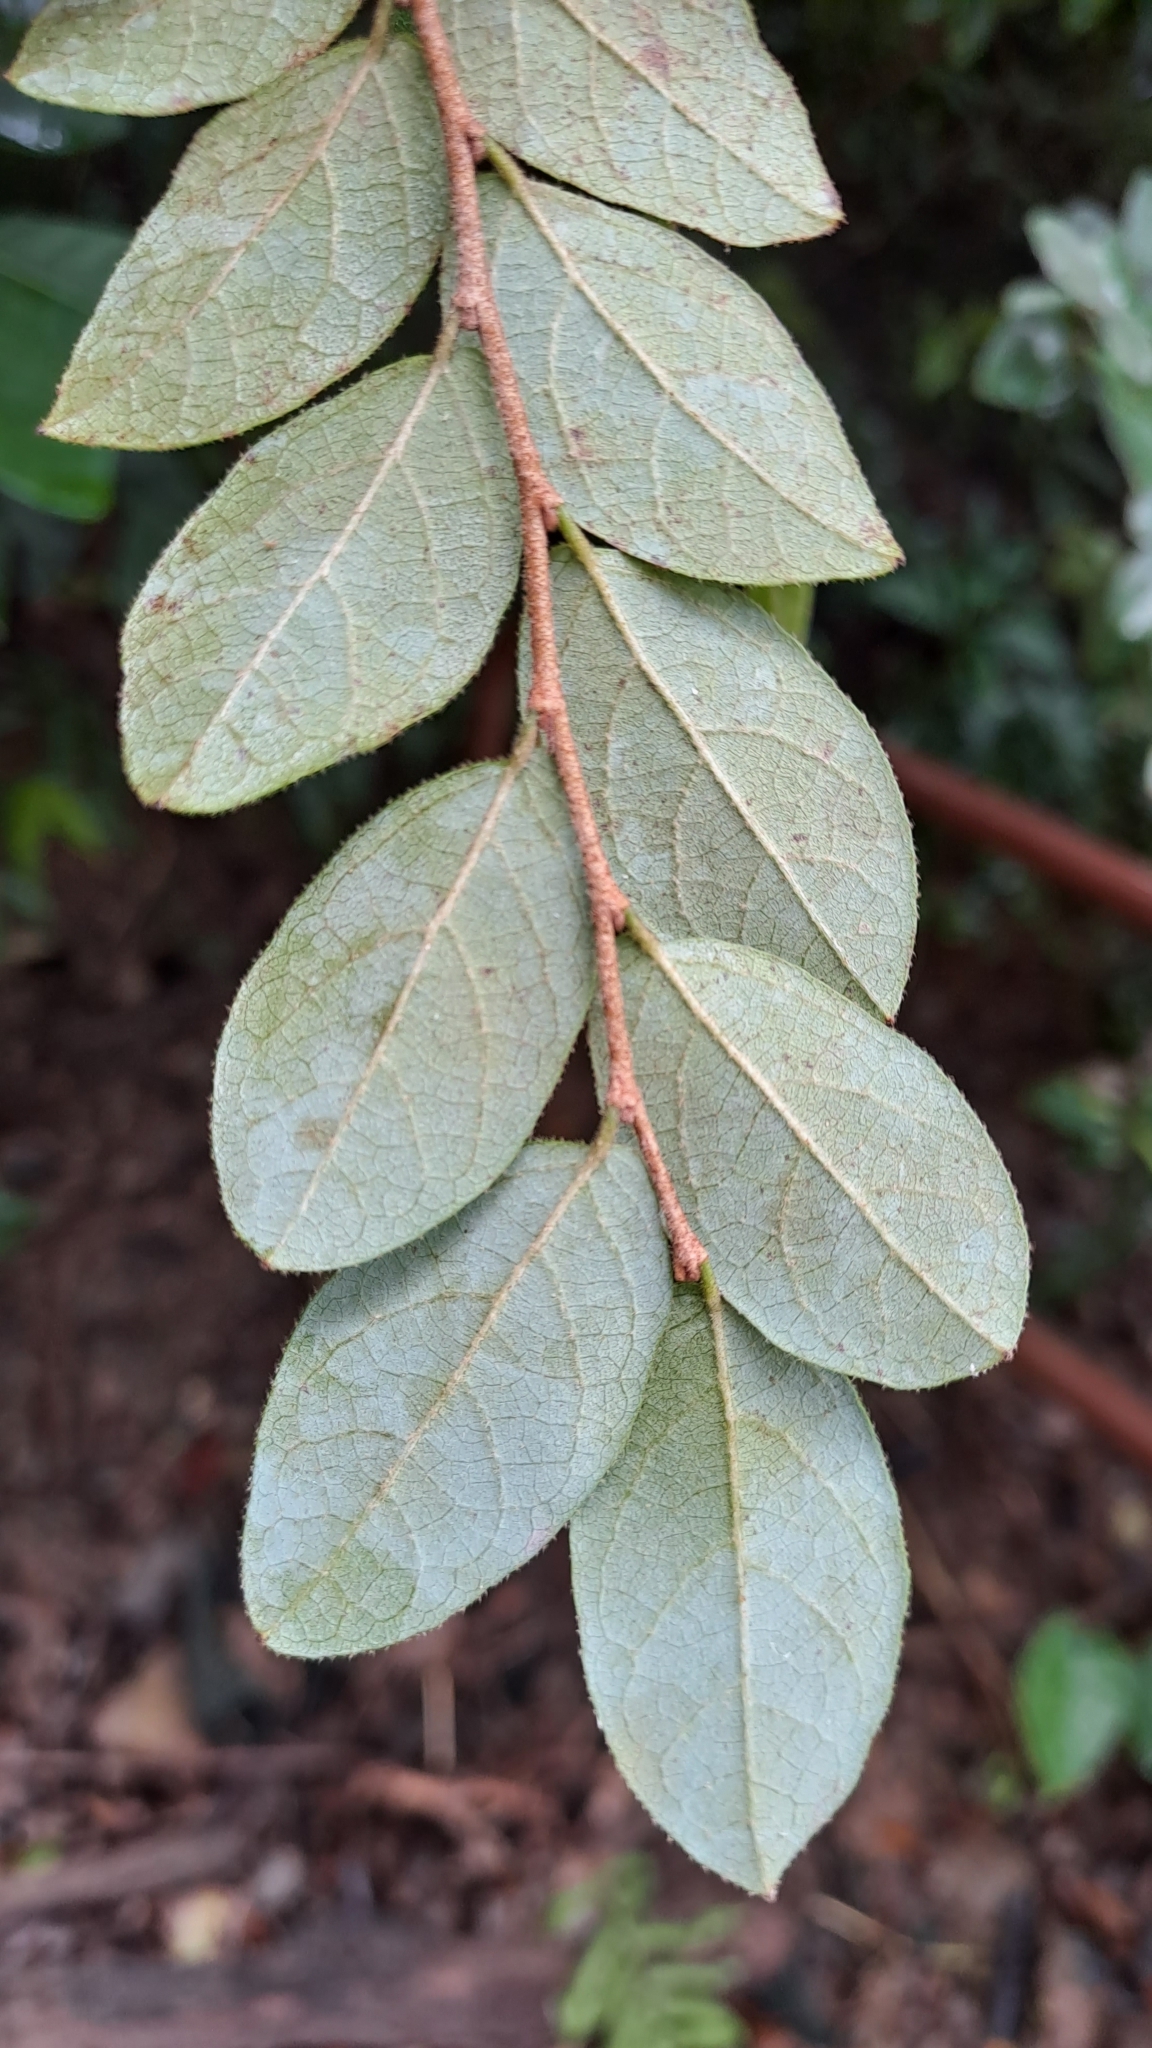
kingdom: Plantae
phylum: Tracheophyta
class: Magnoliopsida
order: Saxifragales
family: Hamamelidaceae
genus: Loropetalum
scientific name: Loropetalum chinense
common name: Chinese fringe flower
